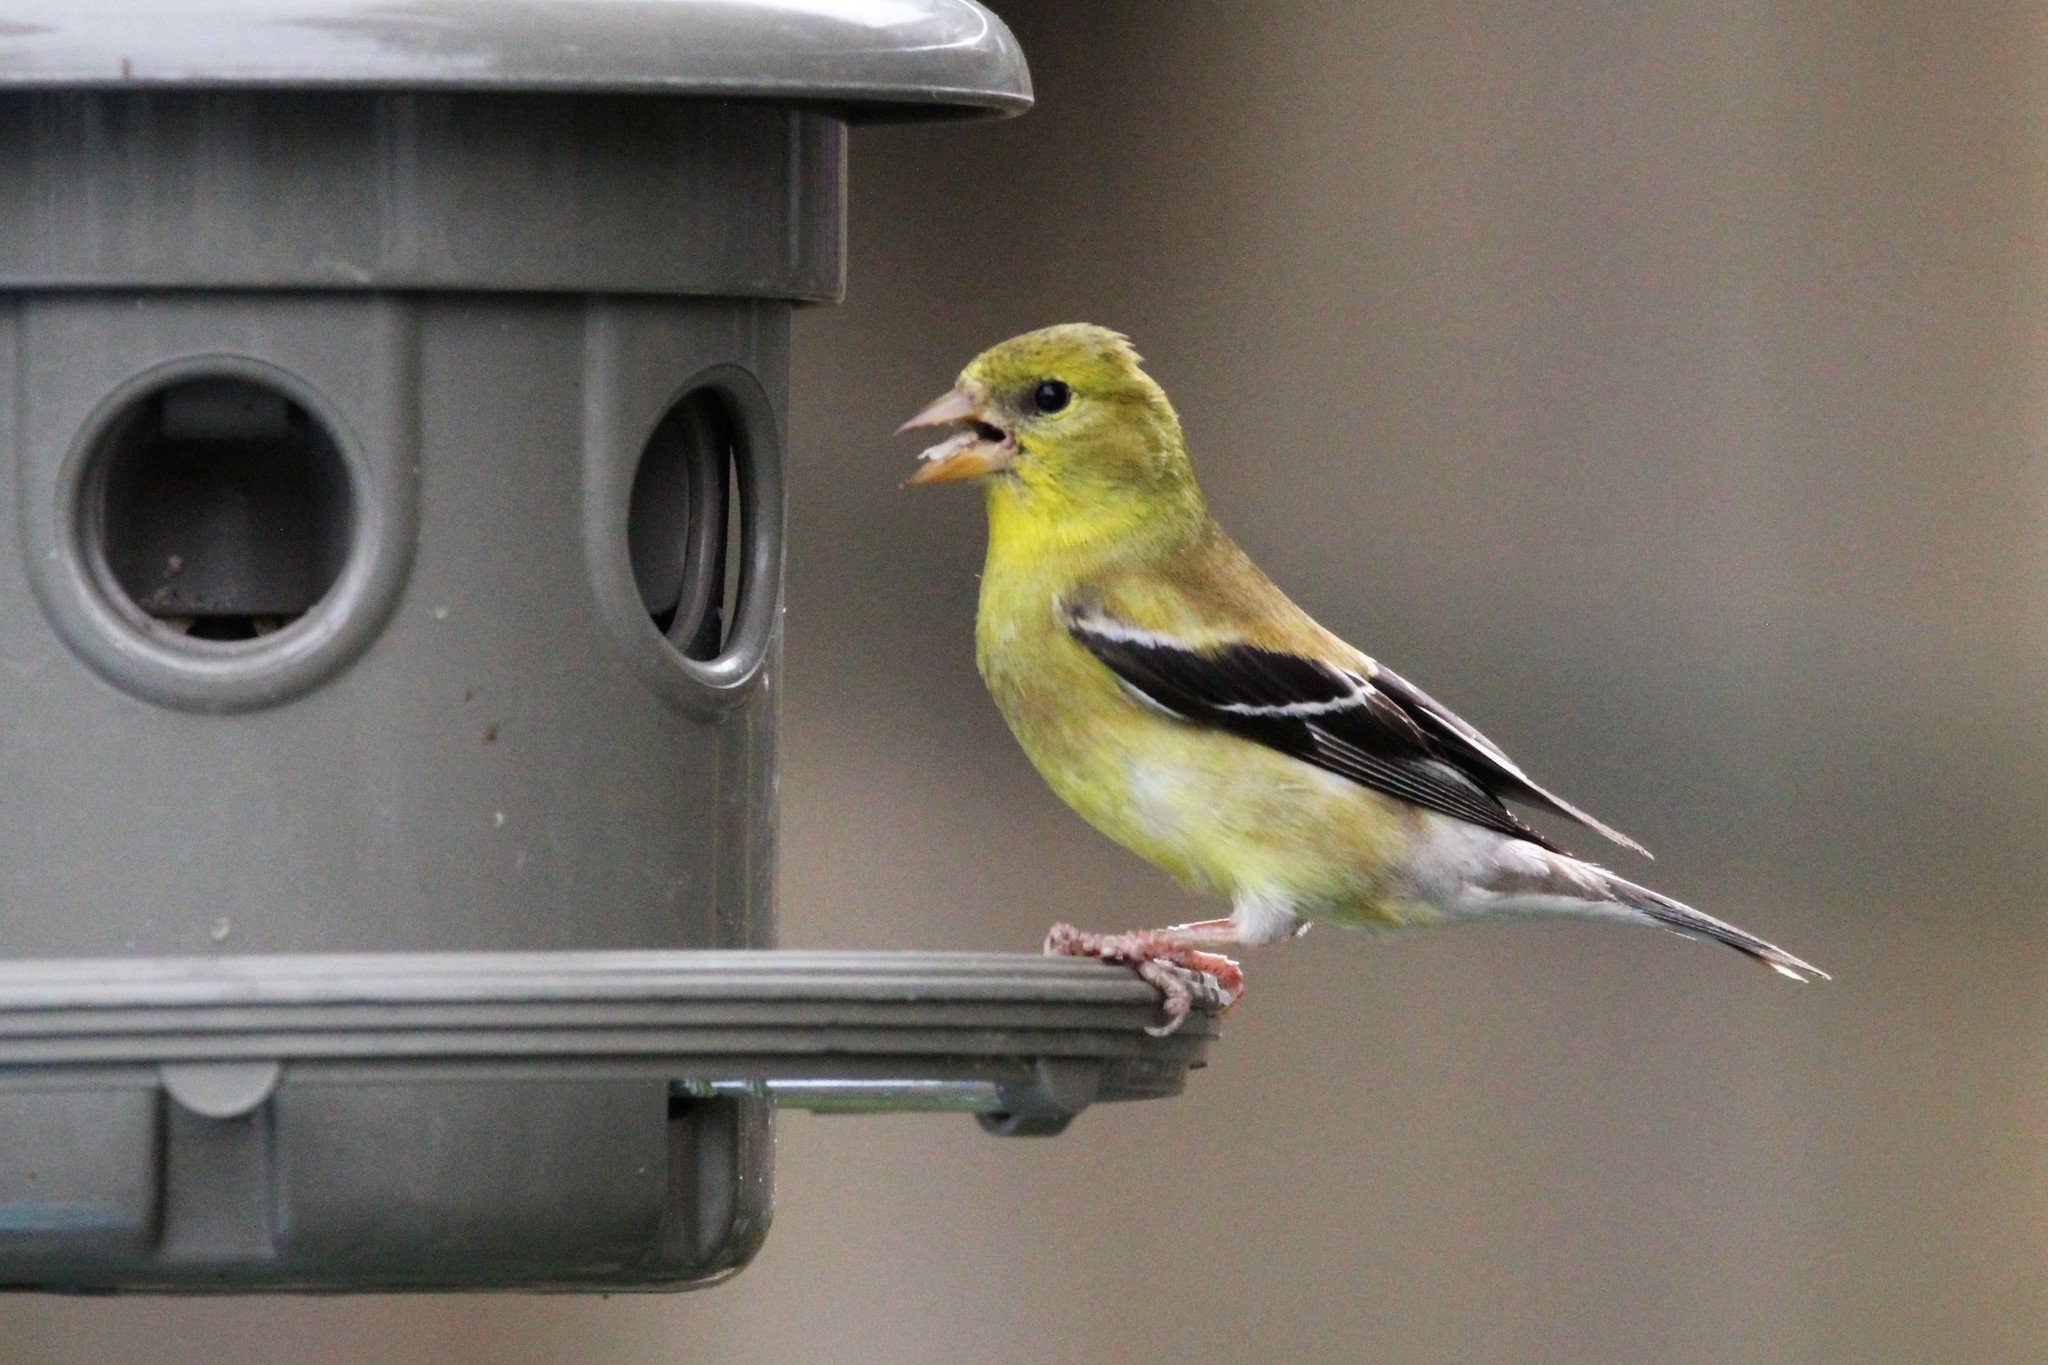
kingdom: Animalia
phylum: Chordata
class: Aves
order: Passeriformes
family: Fringillidae
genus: Spinus
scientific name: Spinus tristis
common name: American goldfinch
